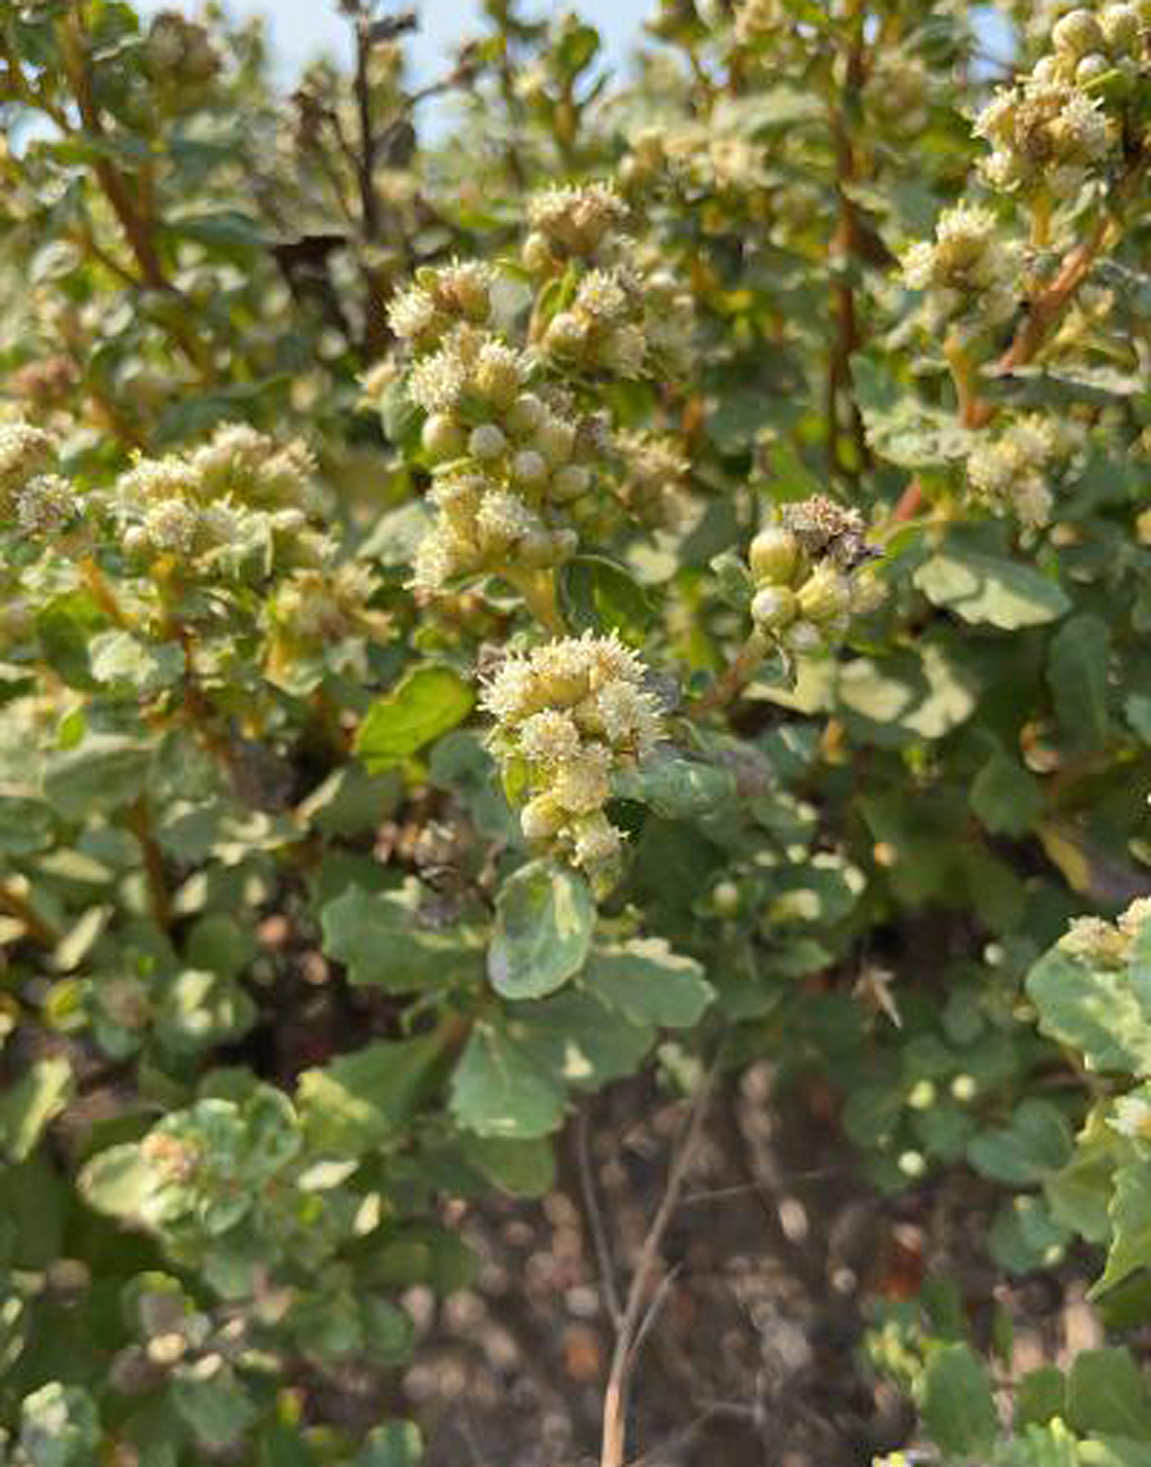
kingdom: Plantae
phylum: Tracheophyta
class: Magnoliopsida
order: Asterales
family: Asteraceae
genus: Baccharis
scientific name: Baccharis pilularis
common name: Coyotebrush
